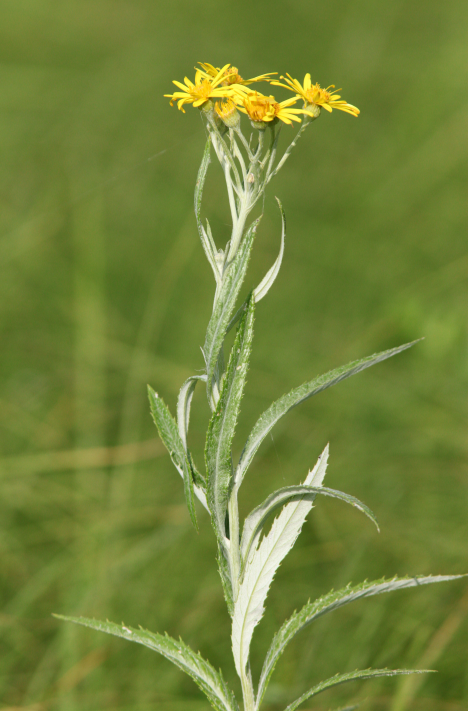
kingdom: Plantae
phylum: Tracheophyta
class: Magnoliopsida
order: Asterales
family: Asteraceae
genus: Jacobaea
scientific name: Jacobaea paludosa
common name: Fen ragwort
